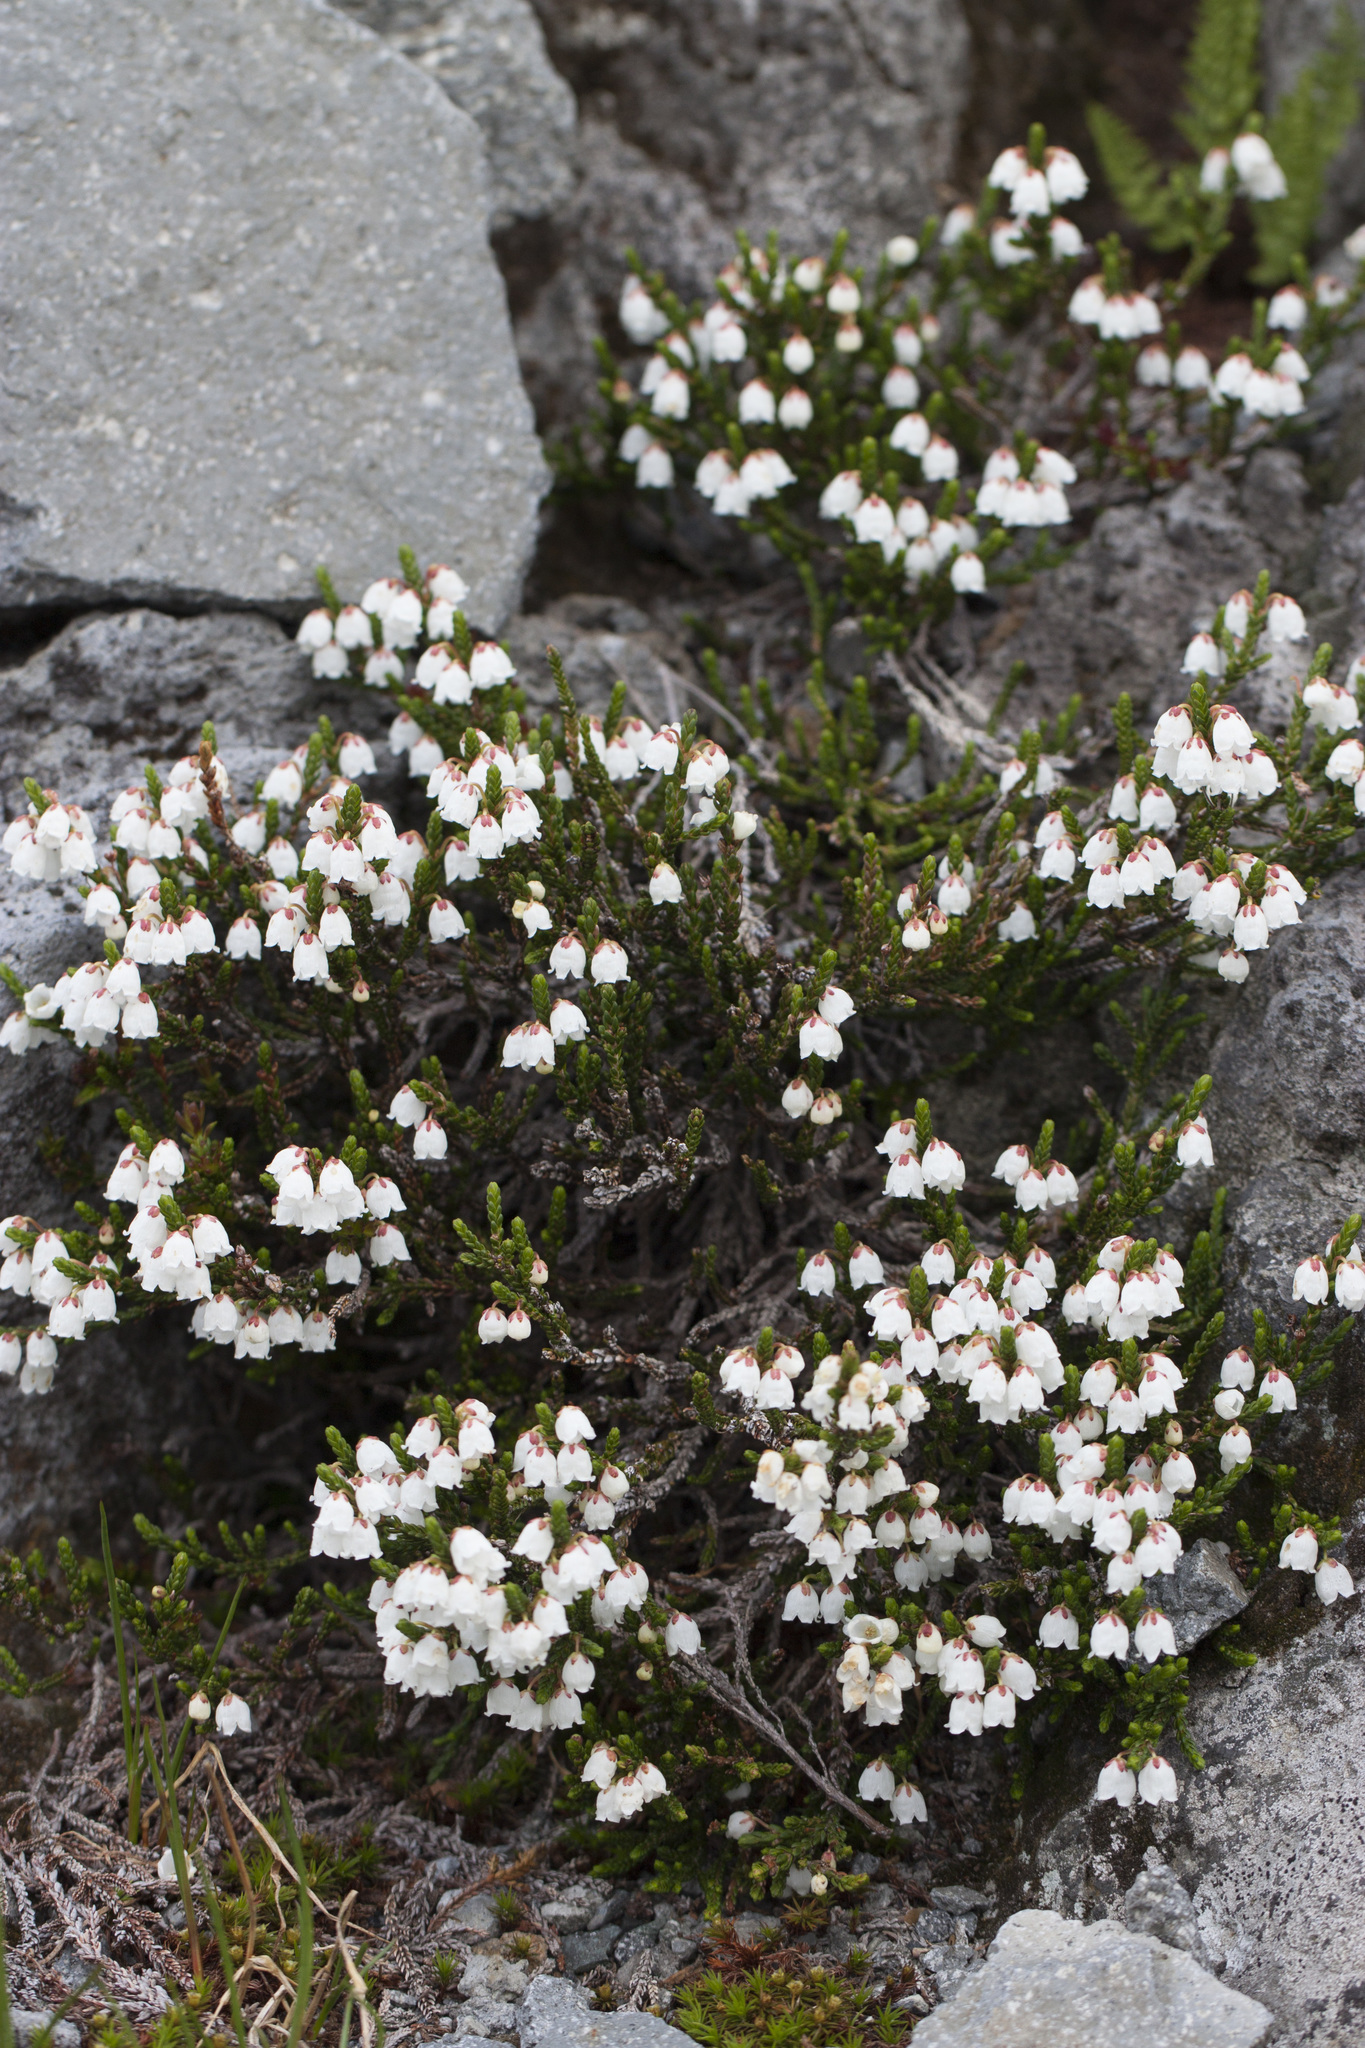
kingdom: Plantae
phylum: Tracheophyta
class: Magnoliopsida
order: Ericales
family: Ericaceae
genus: Cassiope
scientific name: Cassiope mertensiana
